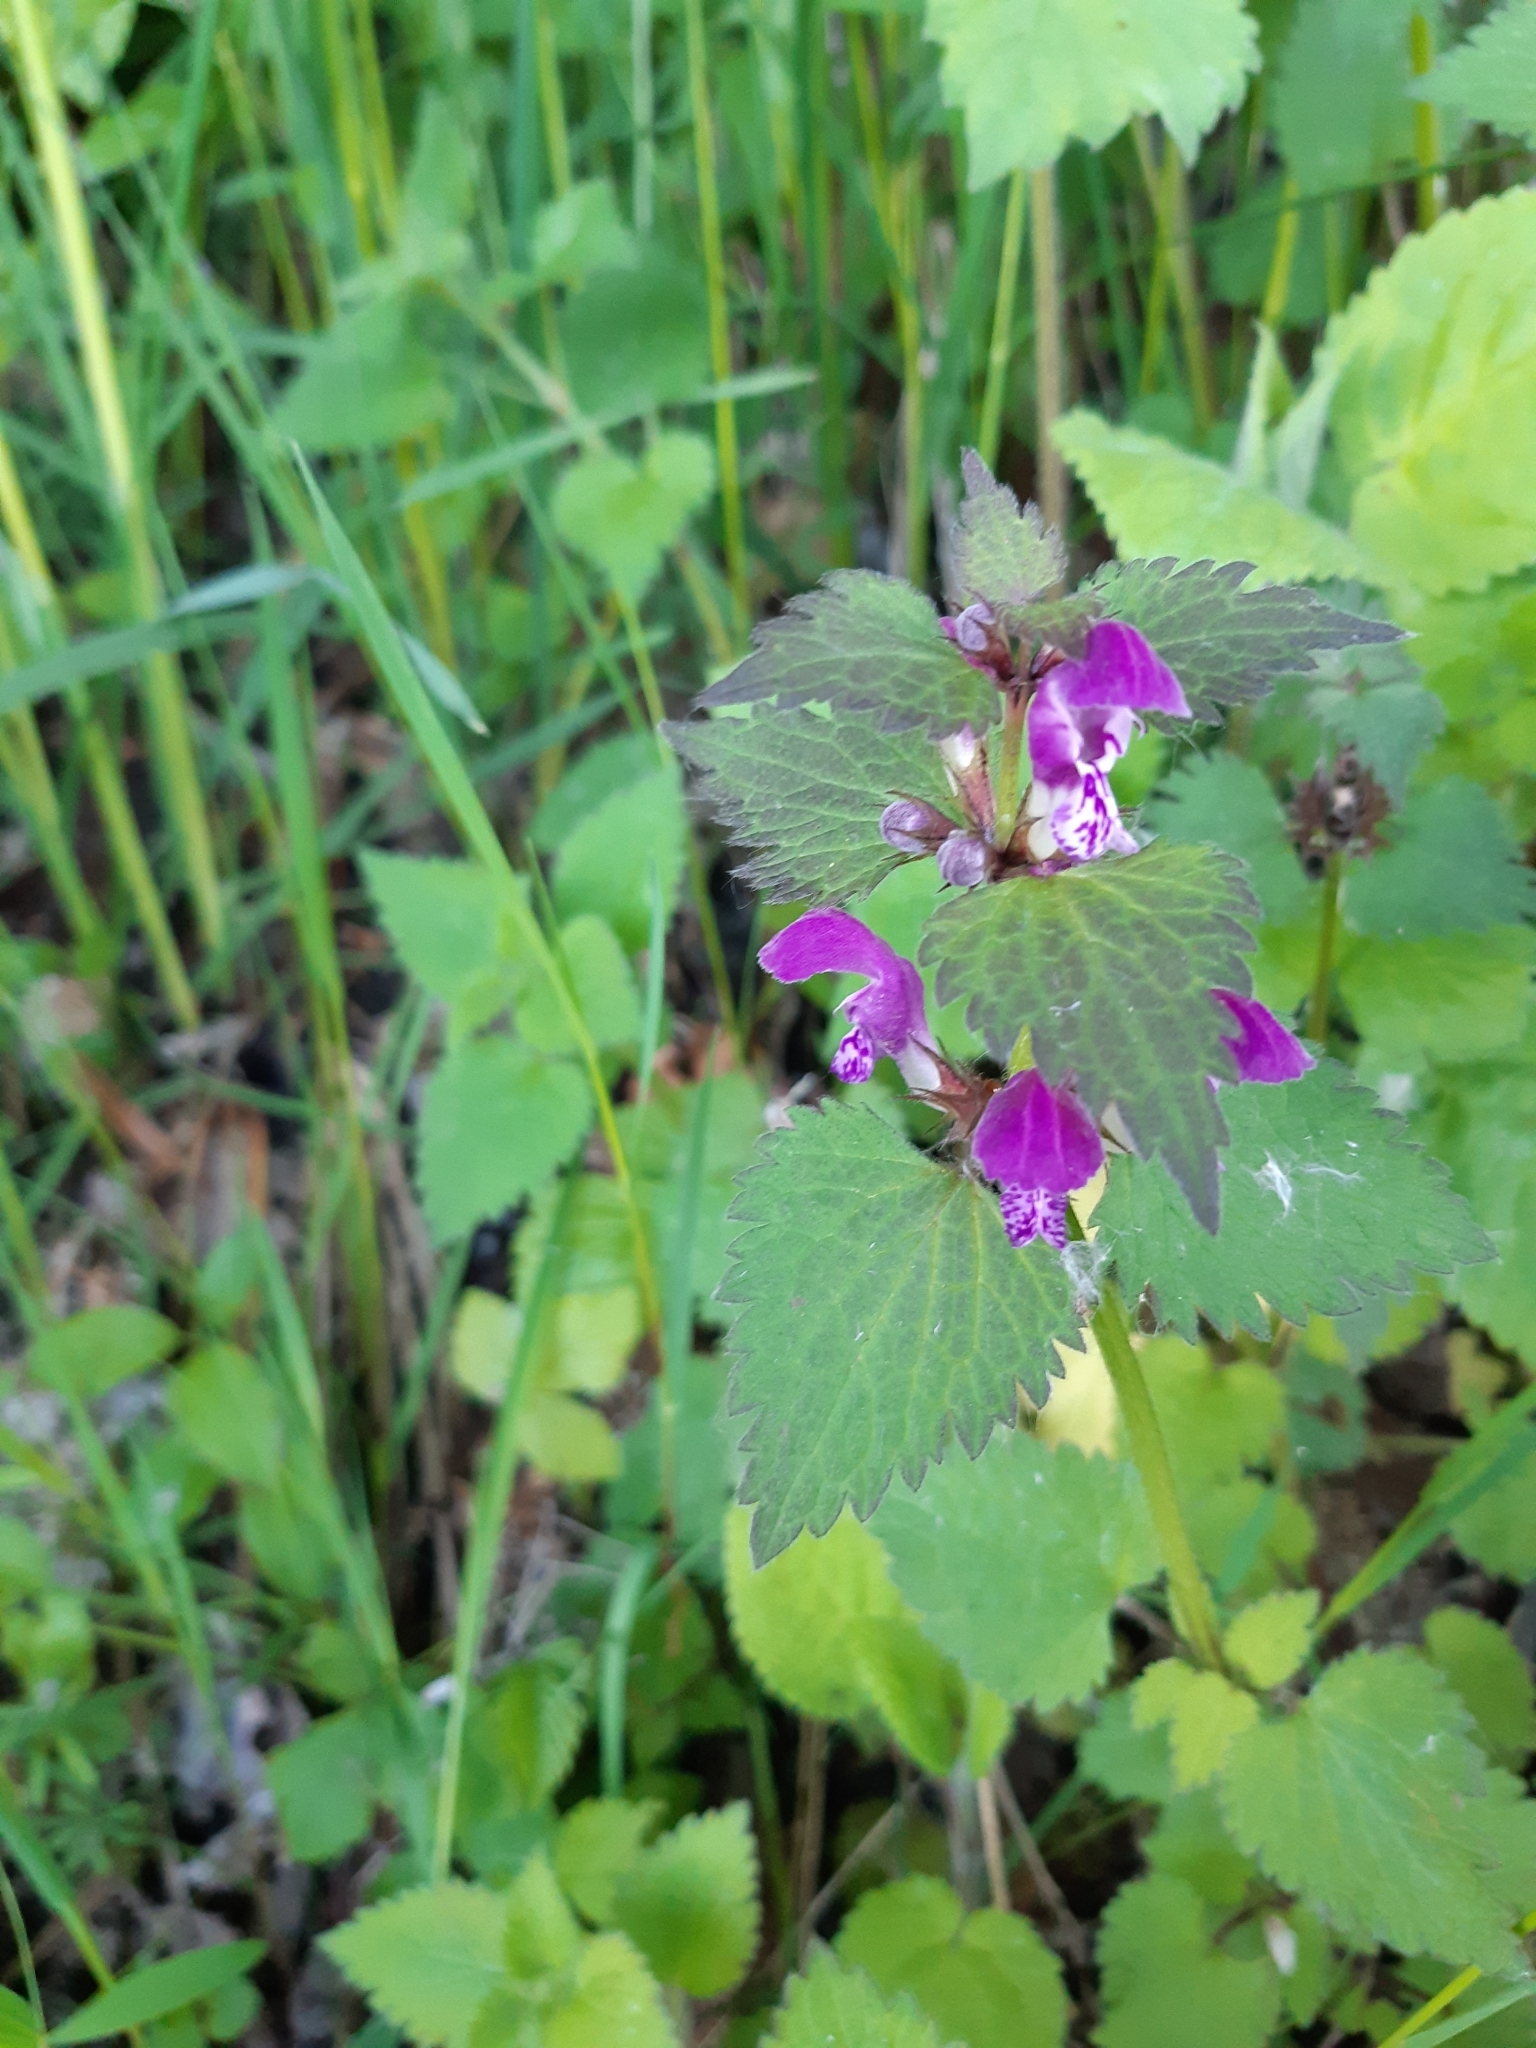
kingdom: Plantae
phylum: Tracheophyta
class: Magnoliopsida
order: Lamiales
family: Lamiaceae
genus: Lamium
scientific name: Lamium maculatum
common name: Spotted dead-nettle
